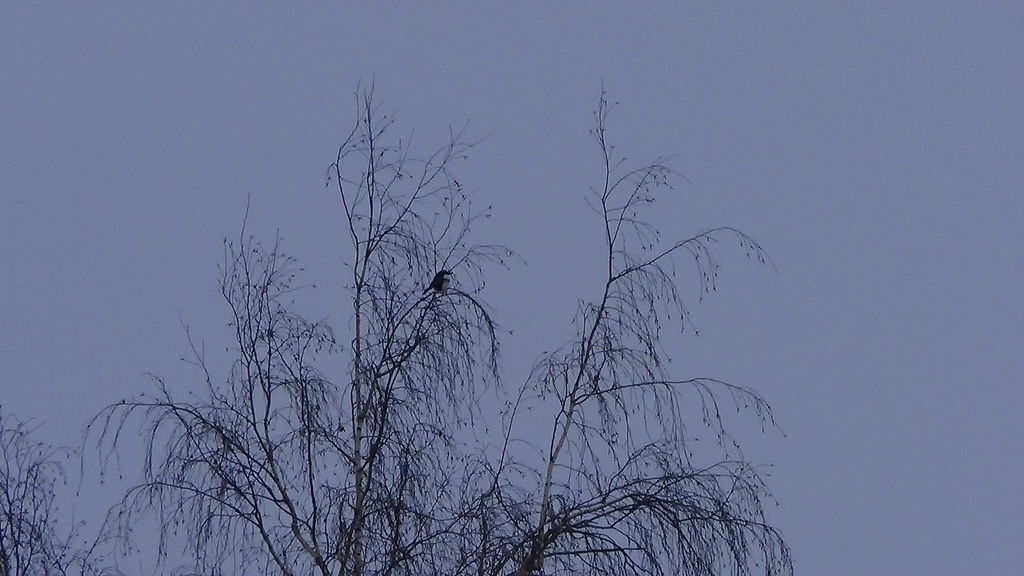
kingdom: Animalia
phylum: Chordata
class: Aves
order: Passeriformes
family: Corvidae
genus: Pica
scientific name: Pica pica
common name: Eurasian magpie
